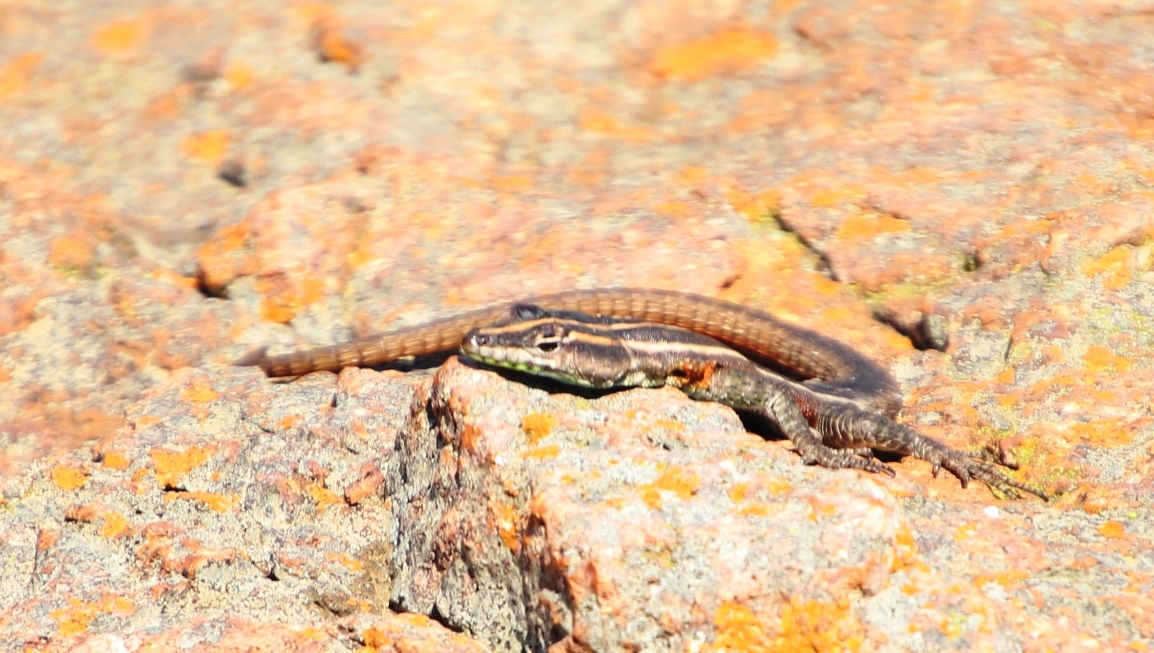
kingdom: Animalia
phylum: Chordata
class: Squamata
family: Cordylidae
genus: Platysaurus
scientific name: Platysaurus lebomboensis
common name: Lebombo flat lizard
